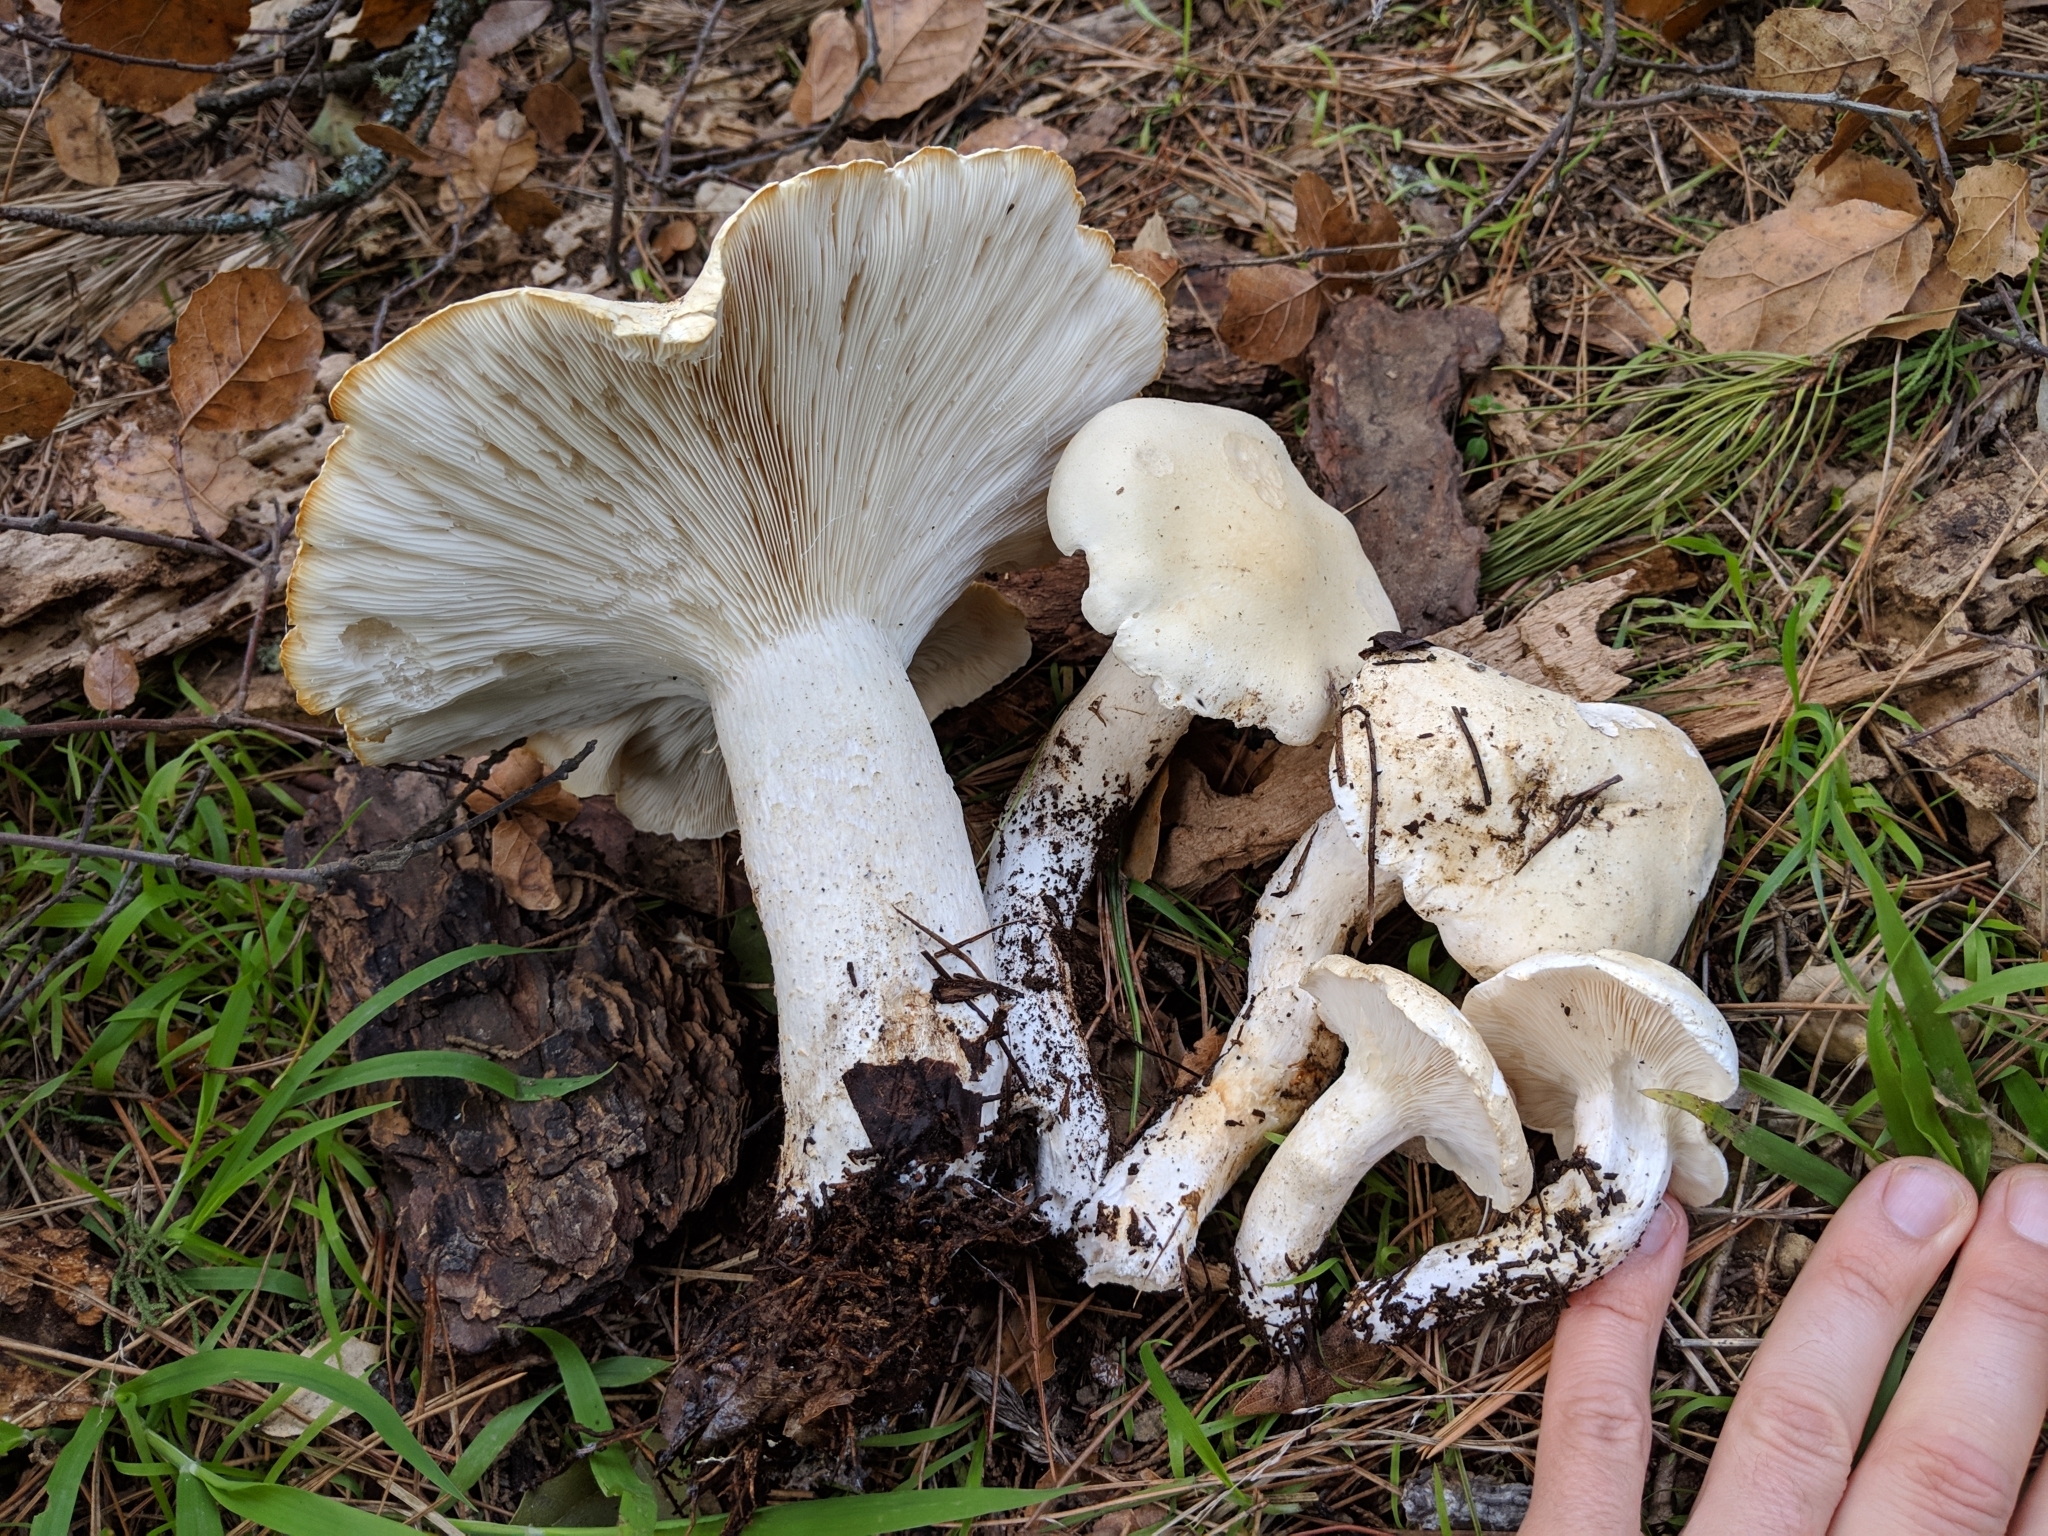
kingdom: Fungi
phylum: Basidiomycota
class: Agaricomycetes
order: Agaricales
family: Tricholomataceae
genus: Leucopaxillus
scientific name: Leucopaxillus albissimus
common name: Large white leucopax
